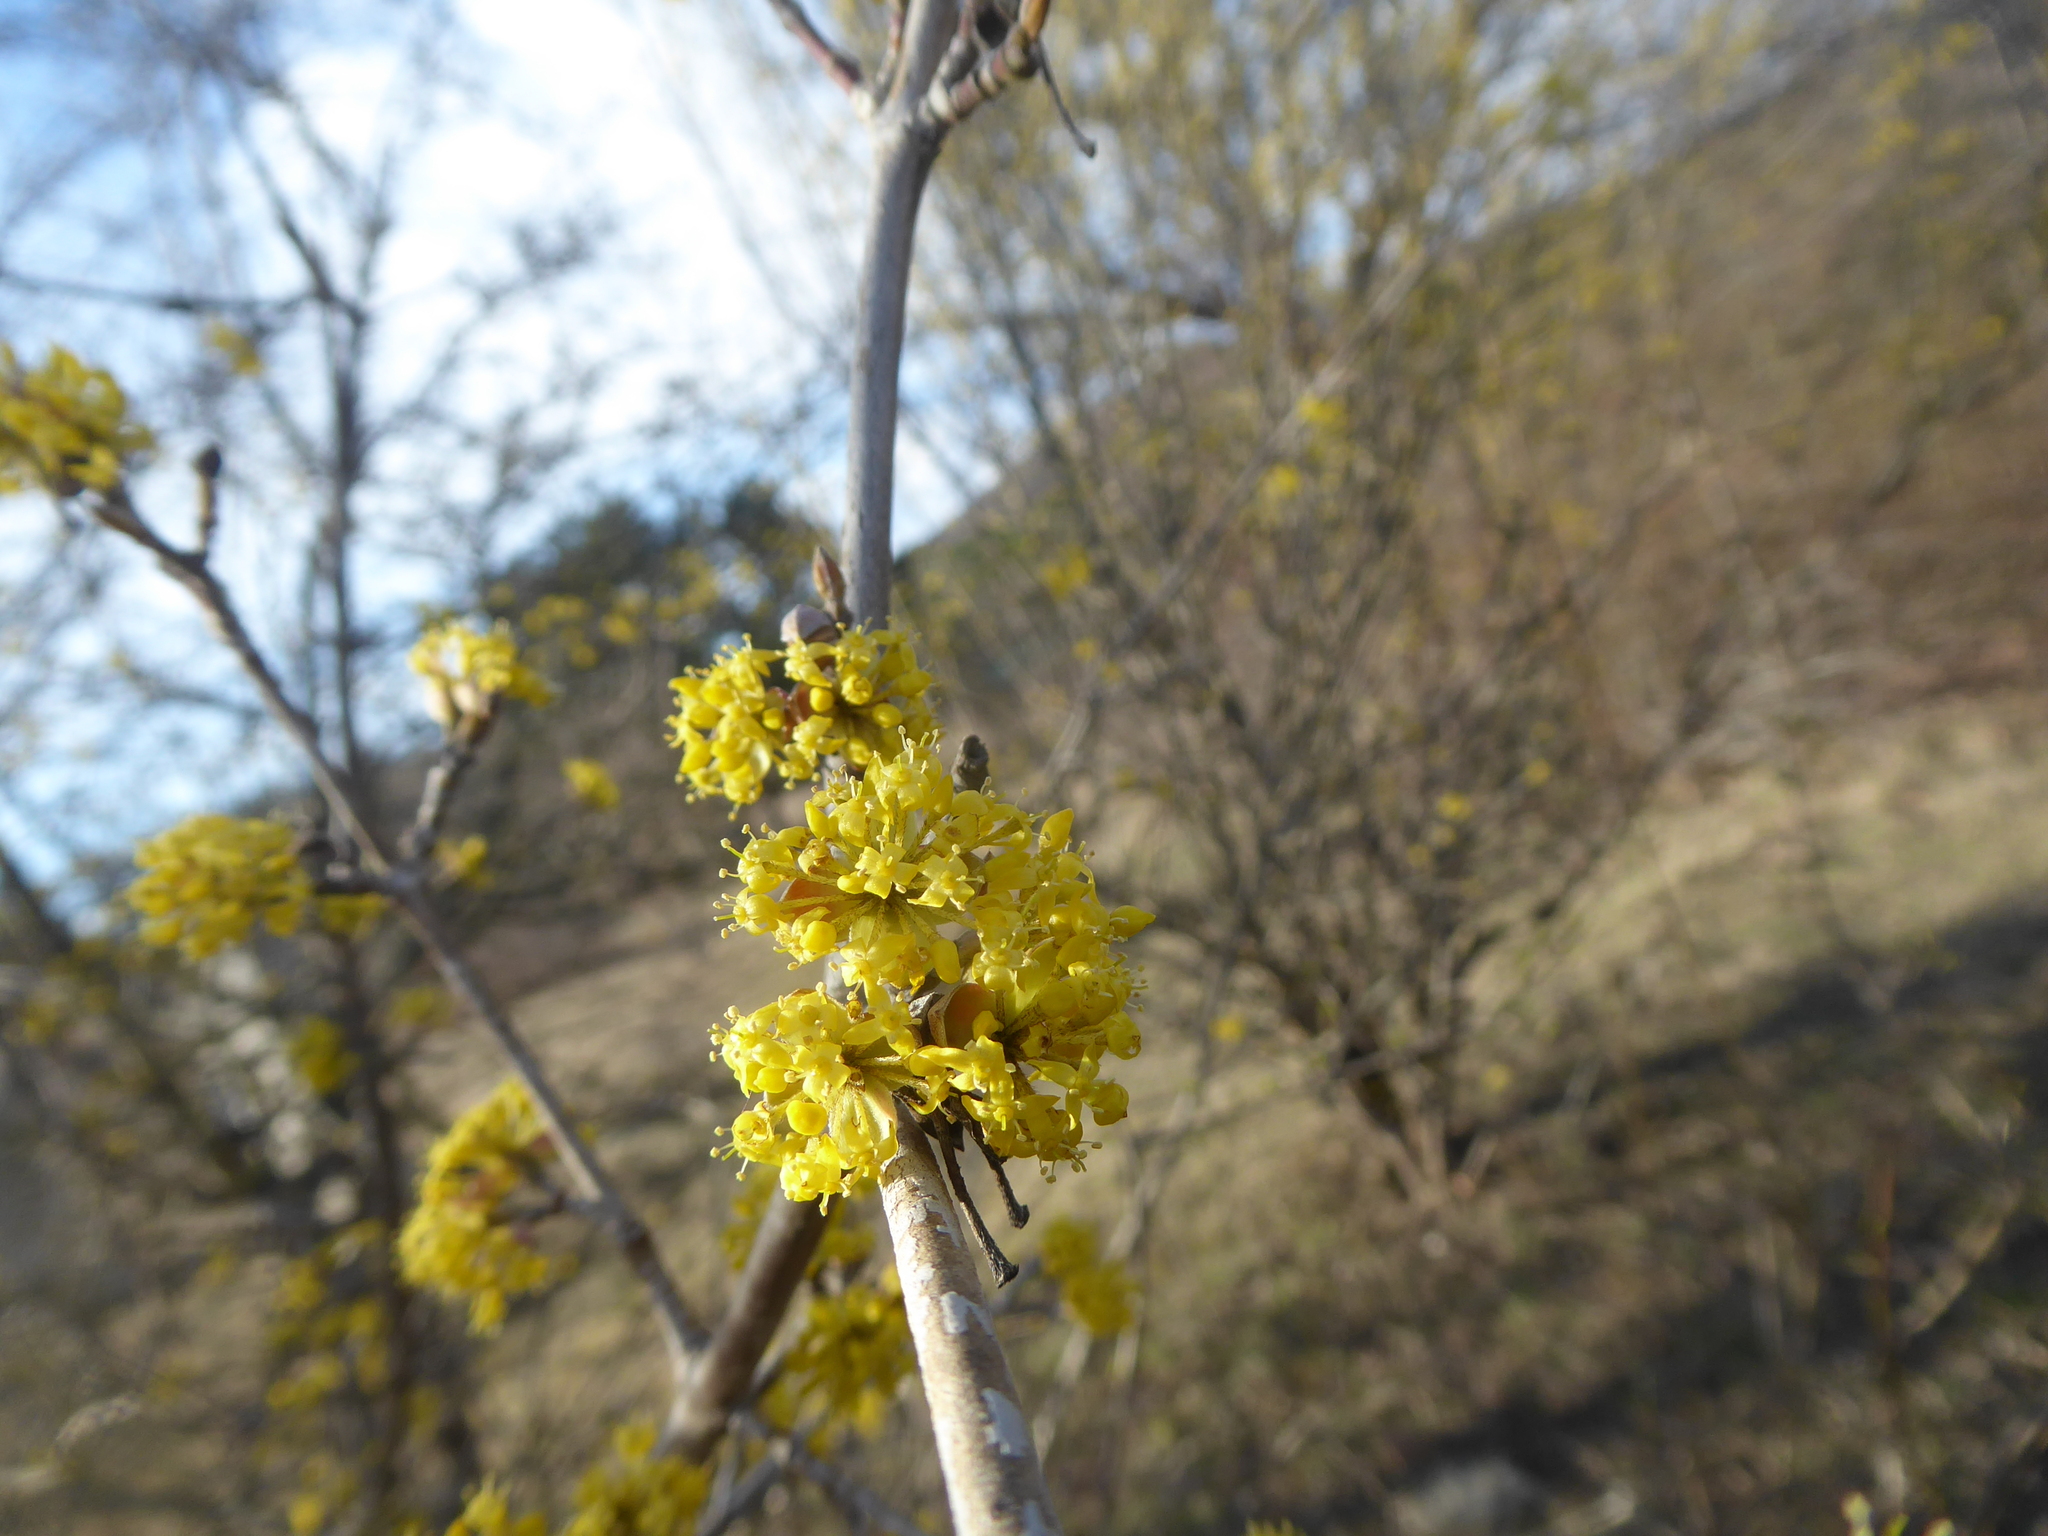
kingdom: Plantae
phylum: Tracheophyta
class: Magnoliopsida
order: Cornales
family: Cornaceae
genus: Cornus
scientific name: Cornus mas
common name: Cornelian-cherry
